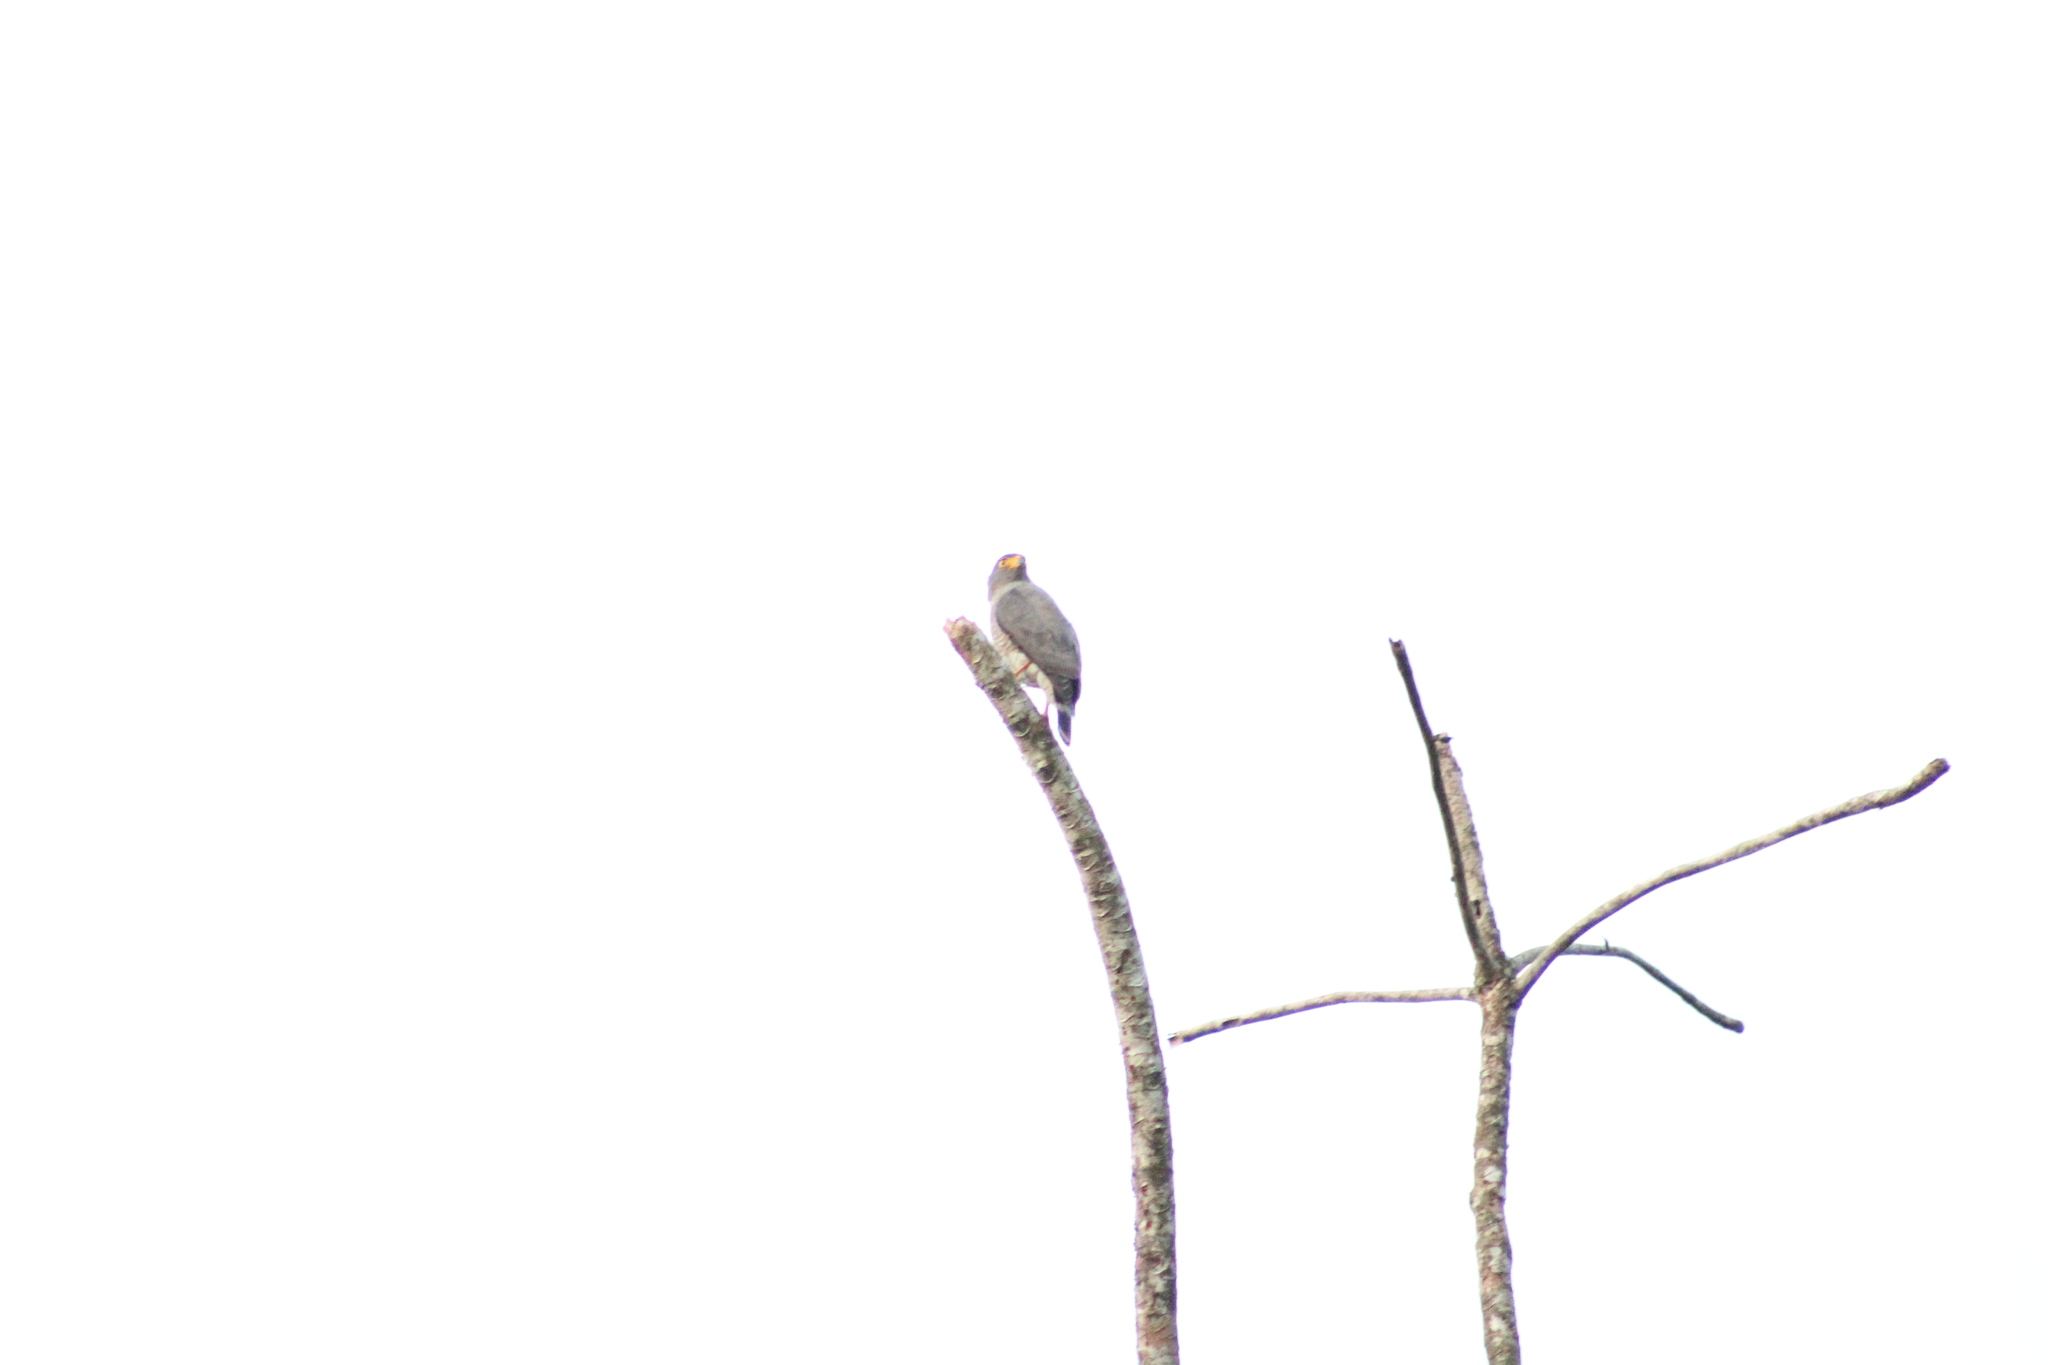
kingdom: Animalia
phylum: Chordata
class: Aves
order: Accipitriformes
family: Accipitridae
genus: Rupornis
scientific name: Rupornis magnirostris
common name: Roadside hawk
